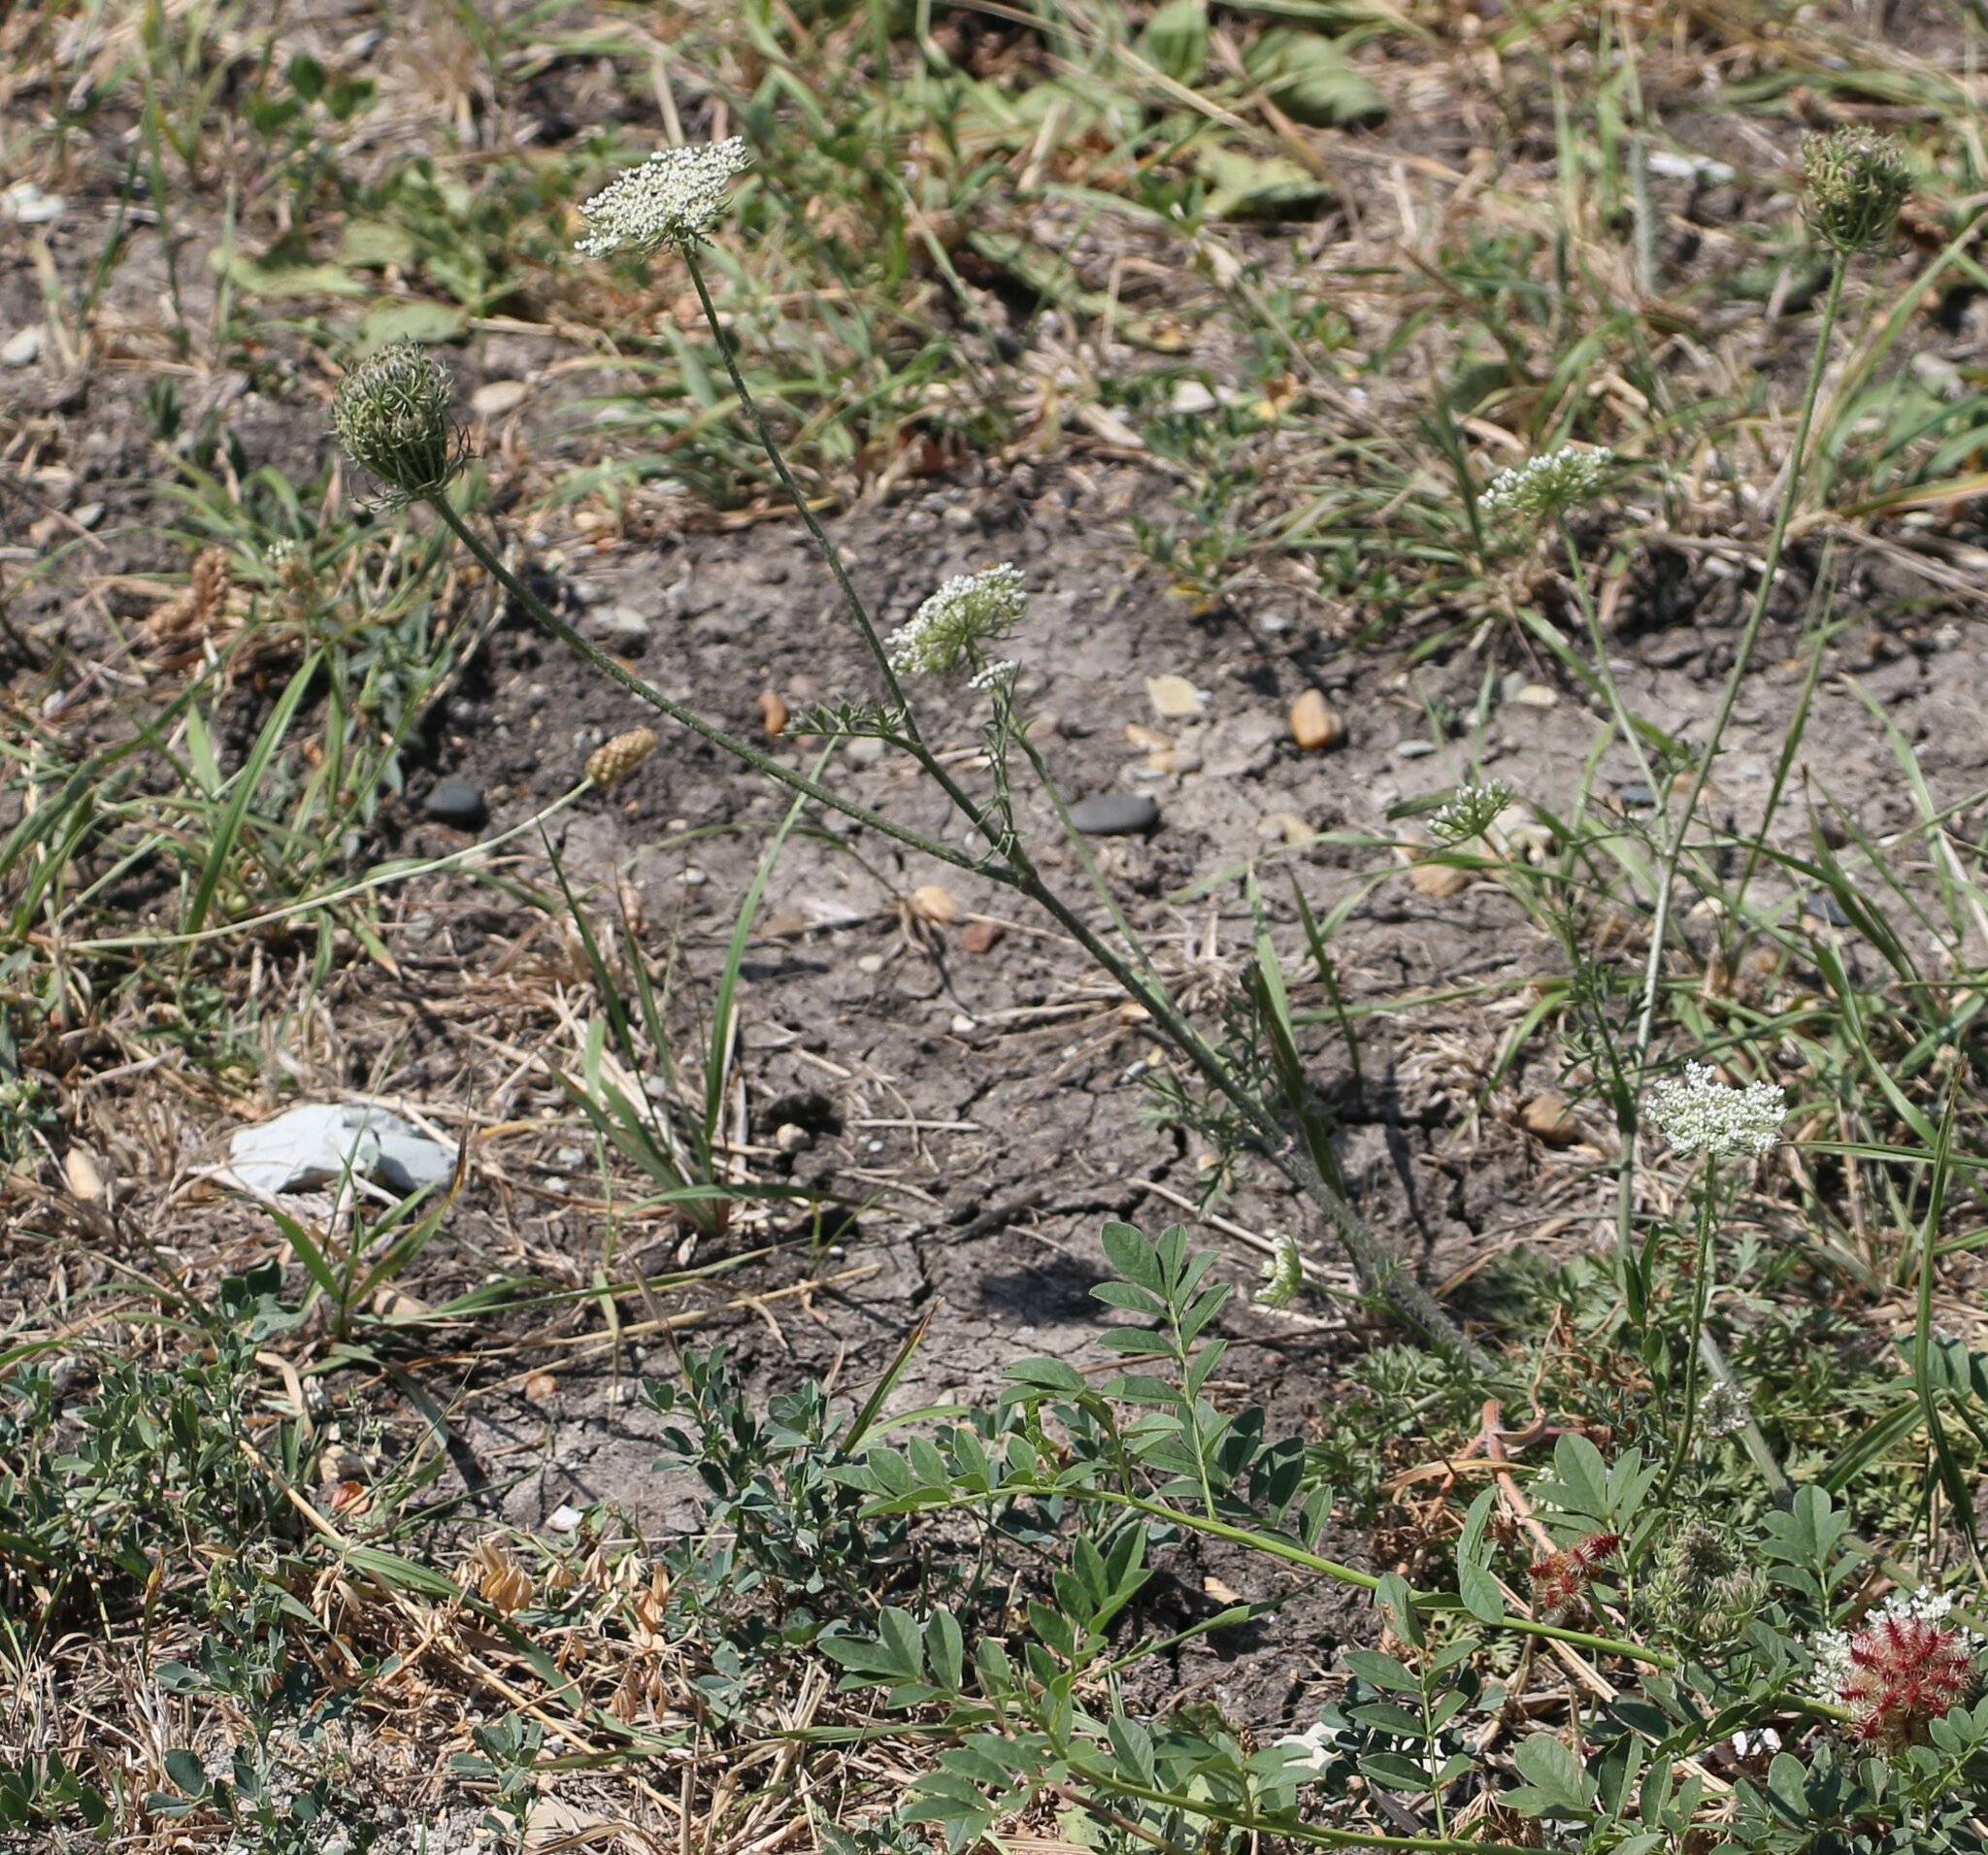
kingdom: Plantae
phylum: Tracheophyta
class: Magnoliopsida
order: Apiales
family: Apiaceae
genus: Daucus
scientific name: Daucus carota
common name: Wild carrot
